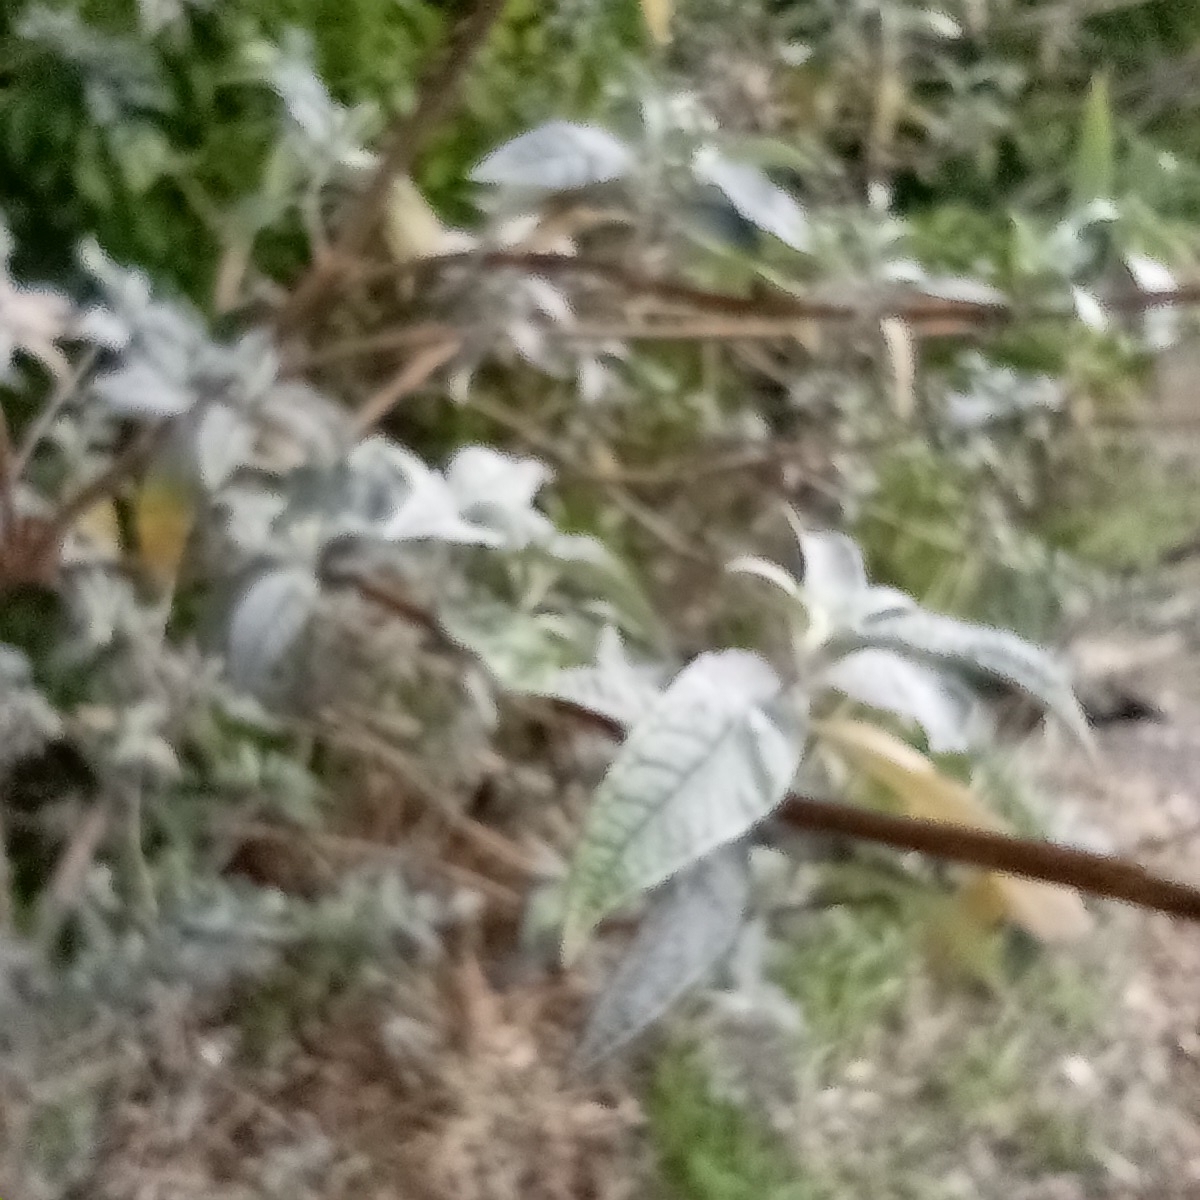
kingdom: Plantae
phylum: Tracheophyta
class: Magnoliopsida
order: Lamiales
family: Scrophulariaceae
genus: Buddleja
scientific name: Buddleja davidii
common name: Butterfly-bush
